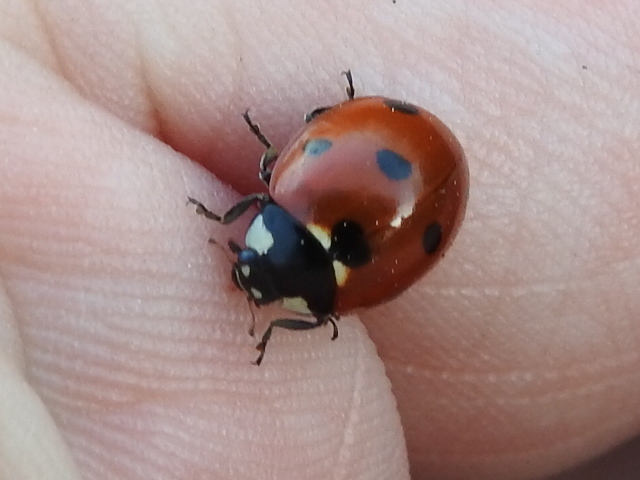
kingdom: Animalia
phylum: Arthropoda
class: Insecta
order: Coleoptera
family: Coccinellidae
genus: Coccinella
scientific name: Coccinella septempunctata
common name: Sevenspotted lady beetle
